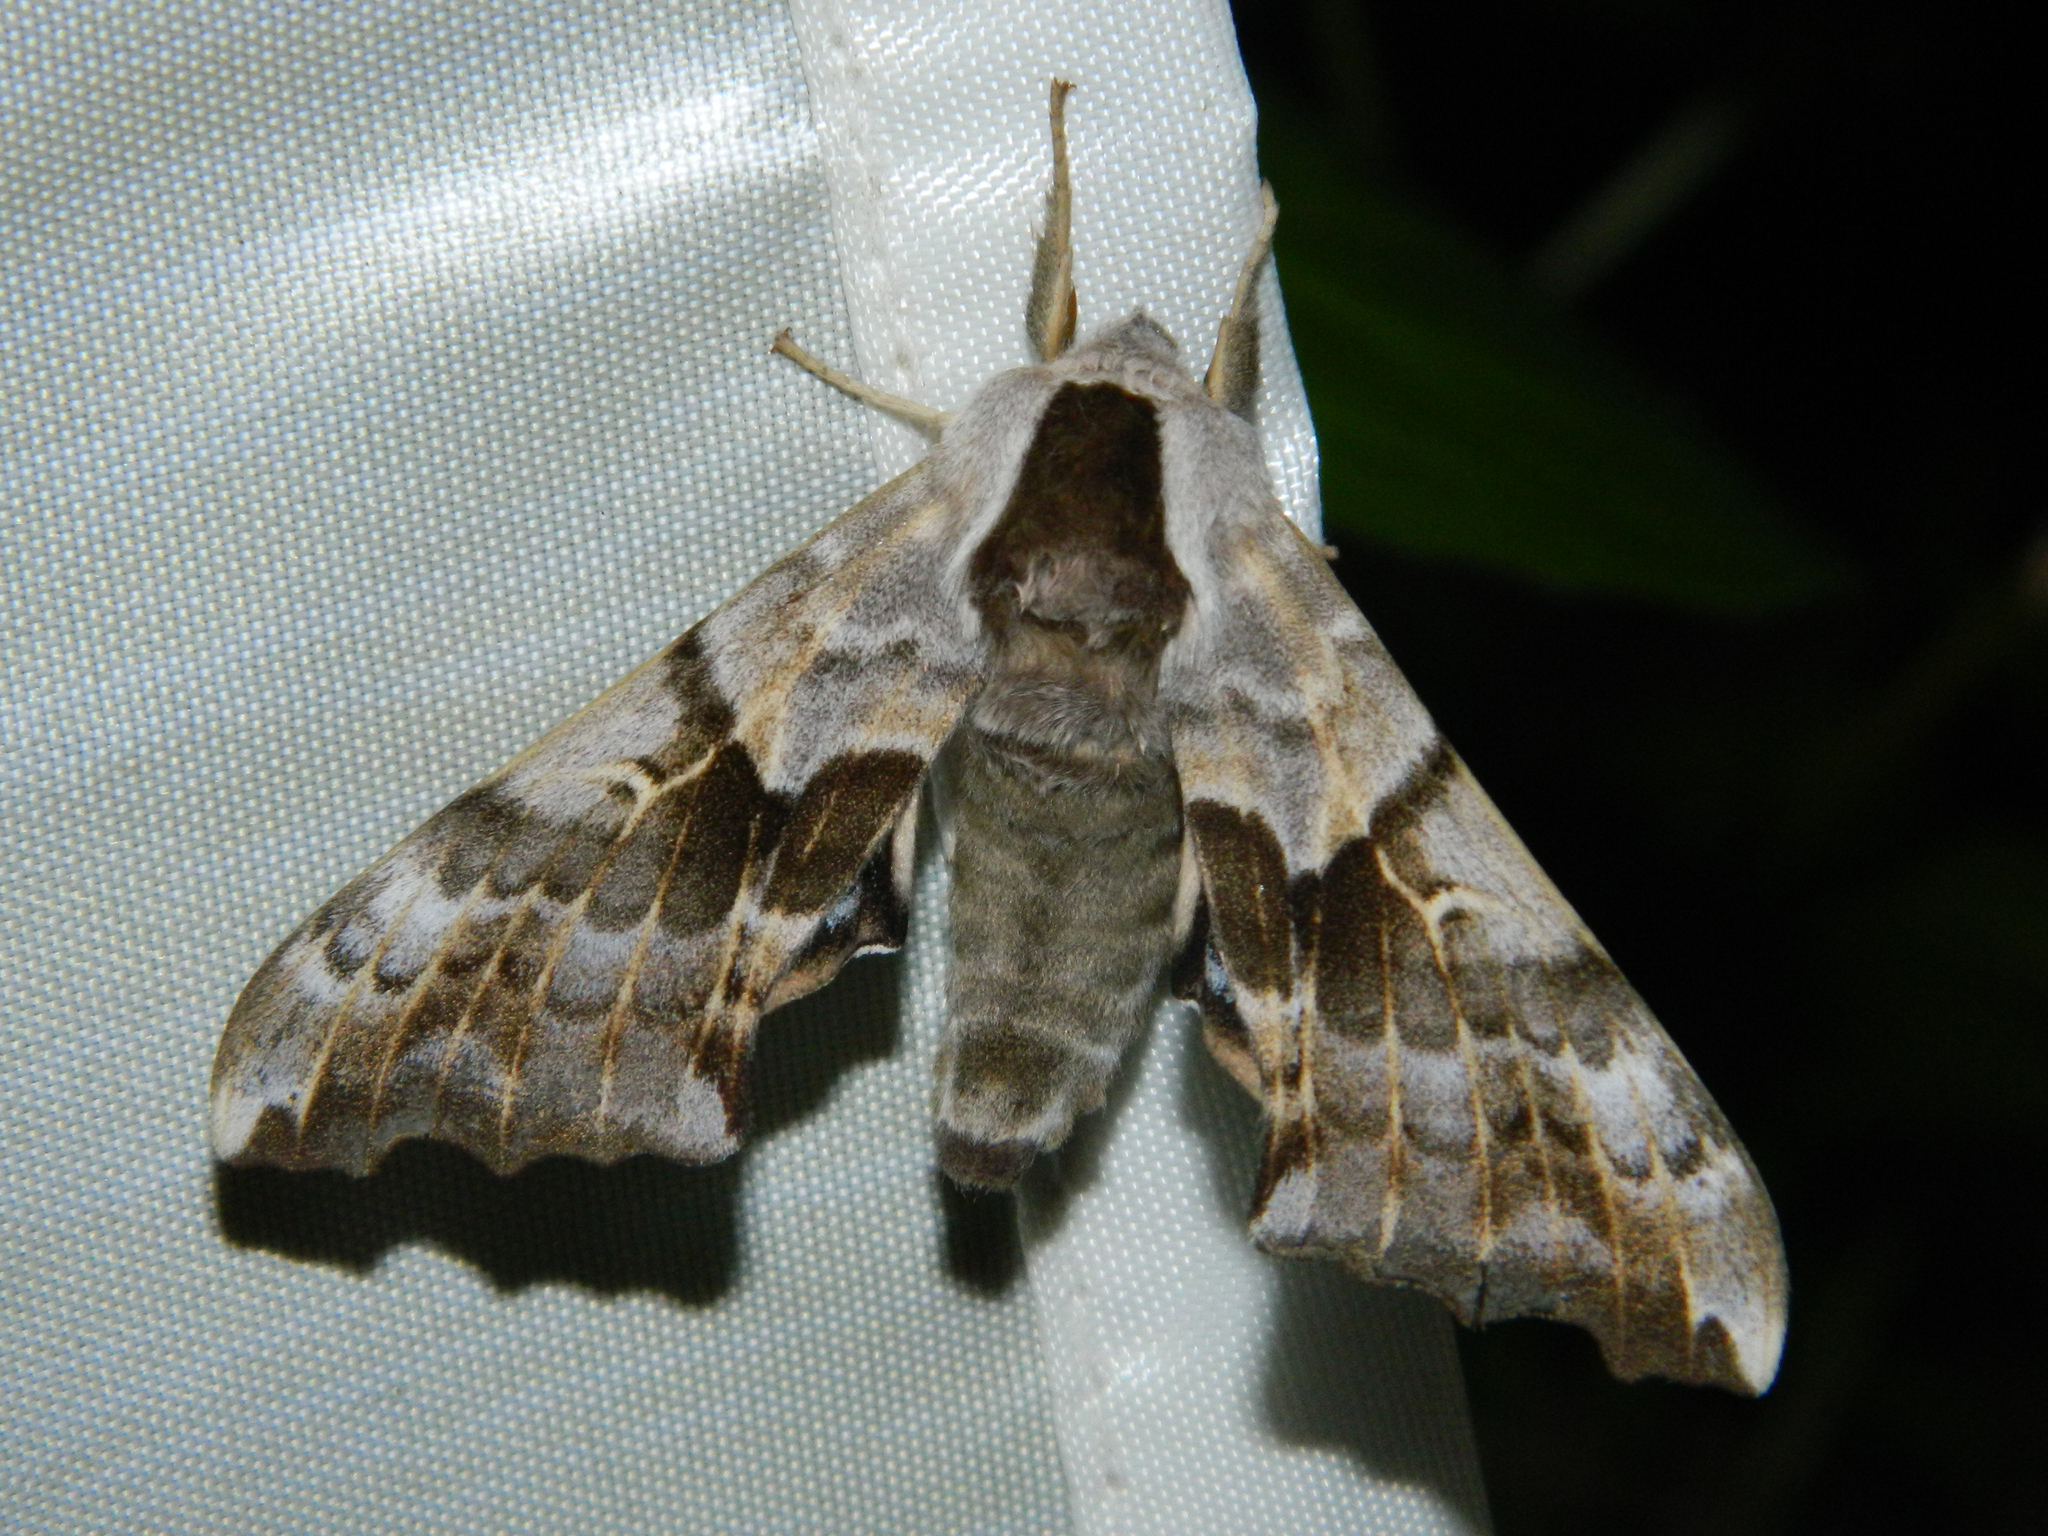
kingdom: Animalia
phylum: Arthropoda
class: Insecta
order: Lepidoptera
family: Sphingidae
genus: Smerinthus
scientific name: Smerinthus cerisyi
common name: Cerisy's sphinx moth
